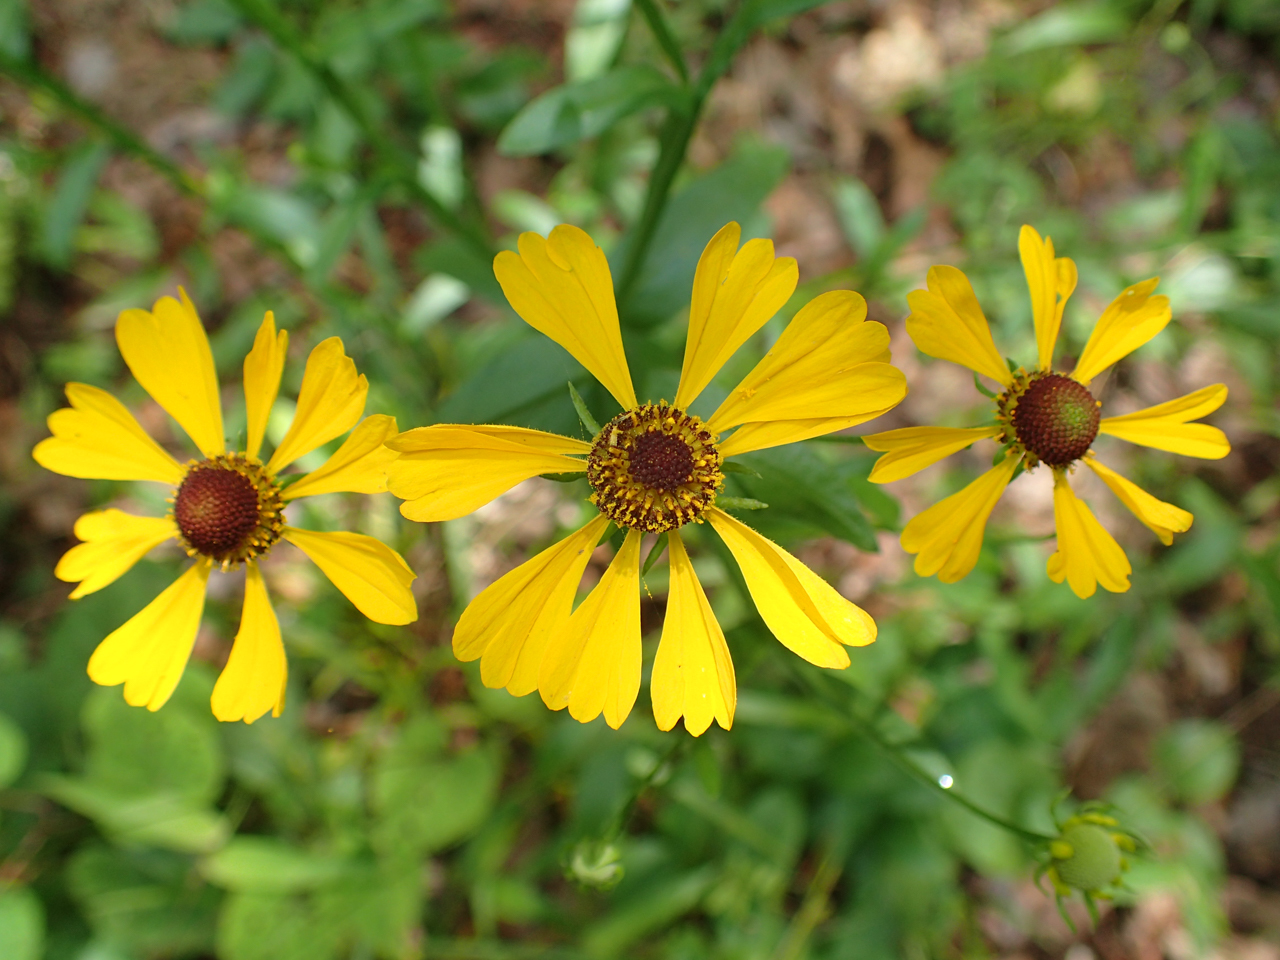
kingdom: Plantae
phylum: Tracheophyta
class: Magnoliopsida
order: Asterales
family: Asteraceae
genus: Helenium
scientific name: Helenium flexuosum
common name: Naked-flowered sneezeweed
